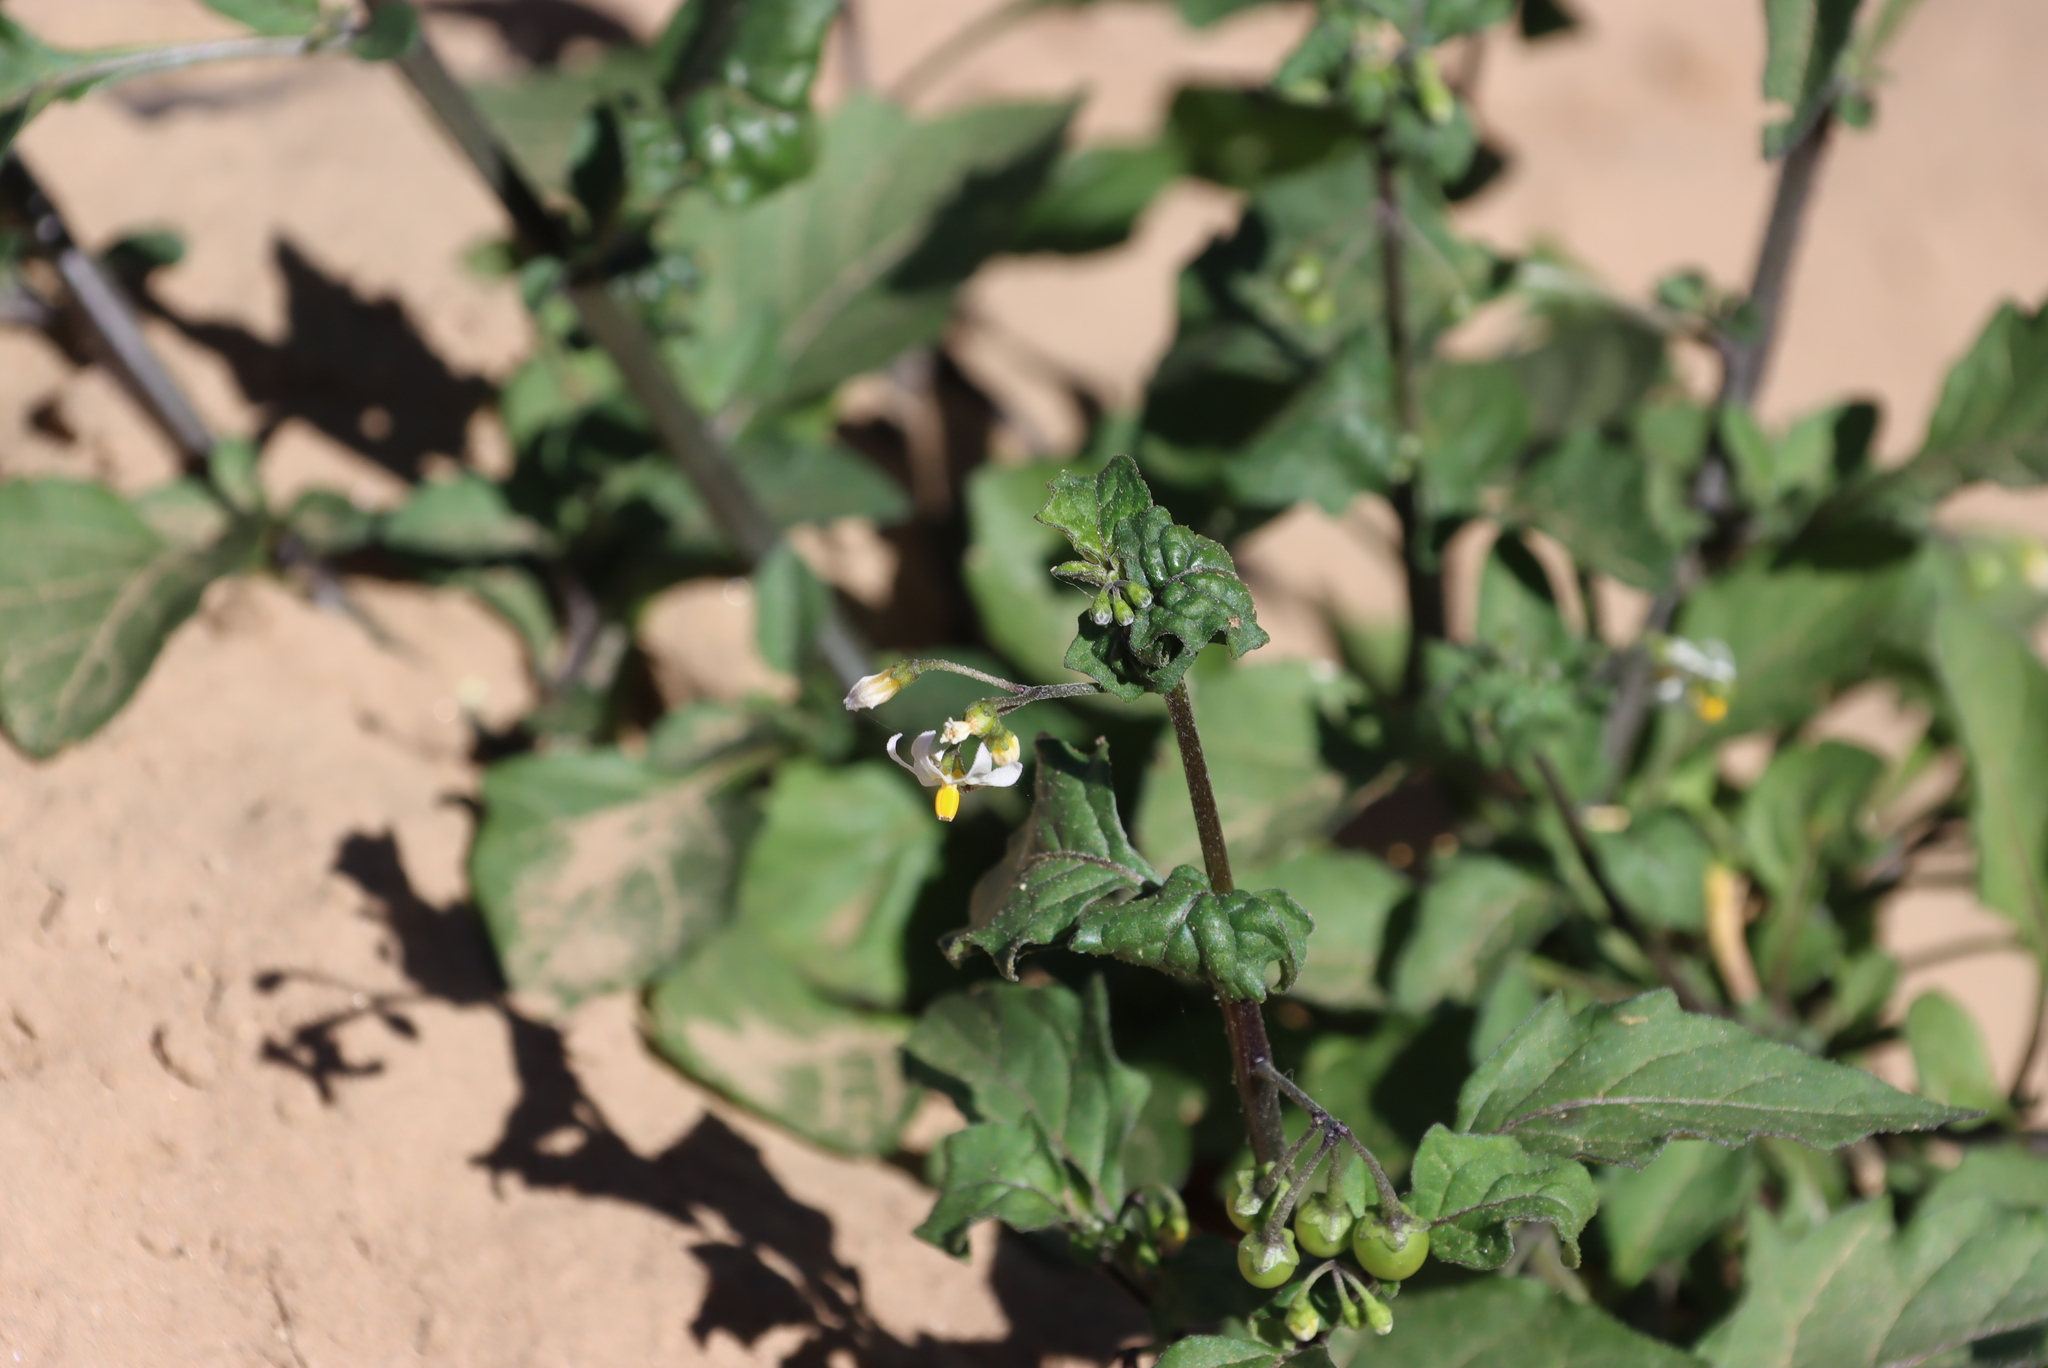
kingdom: Plantae
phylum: Tracheophyta
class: Magnoliopsida
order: Solanales
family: Solanaceae
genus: Solanum
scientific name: Solanum nigrum
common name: Black nightshade
